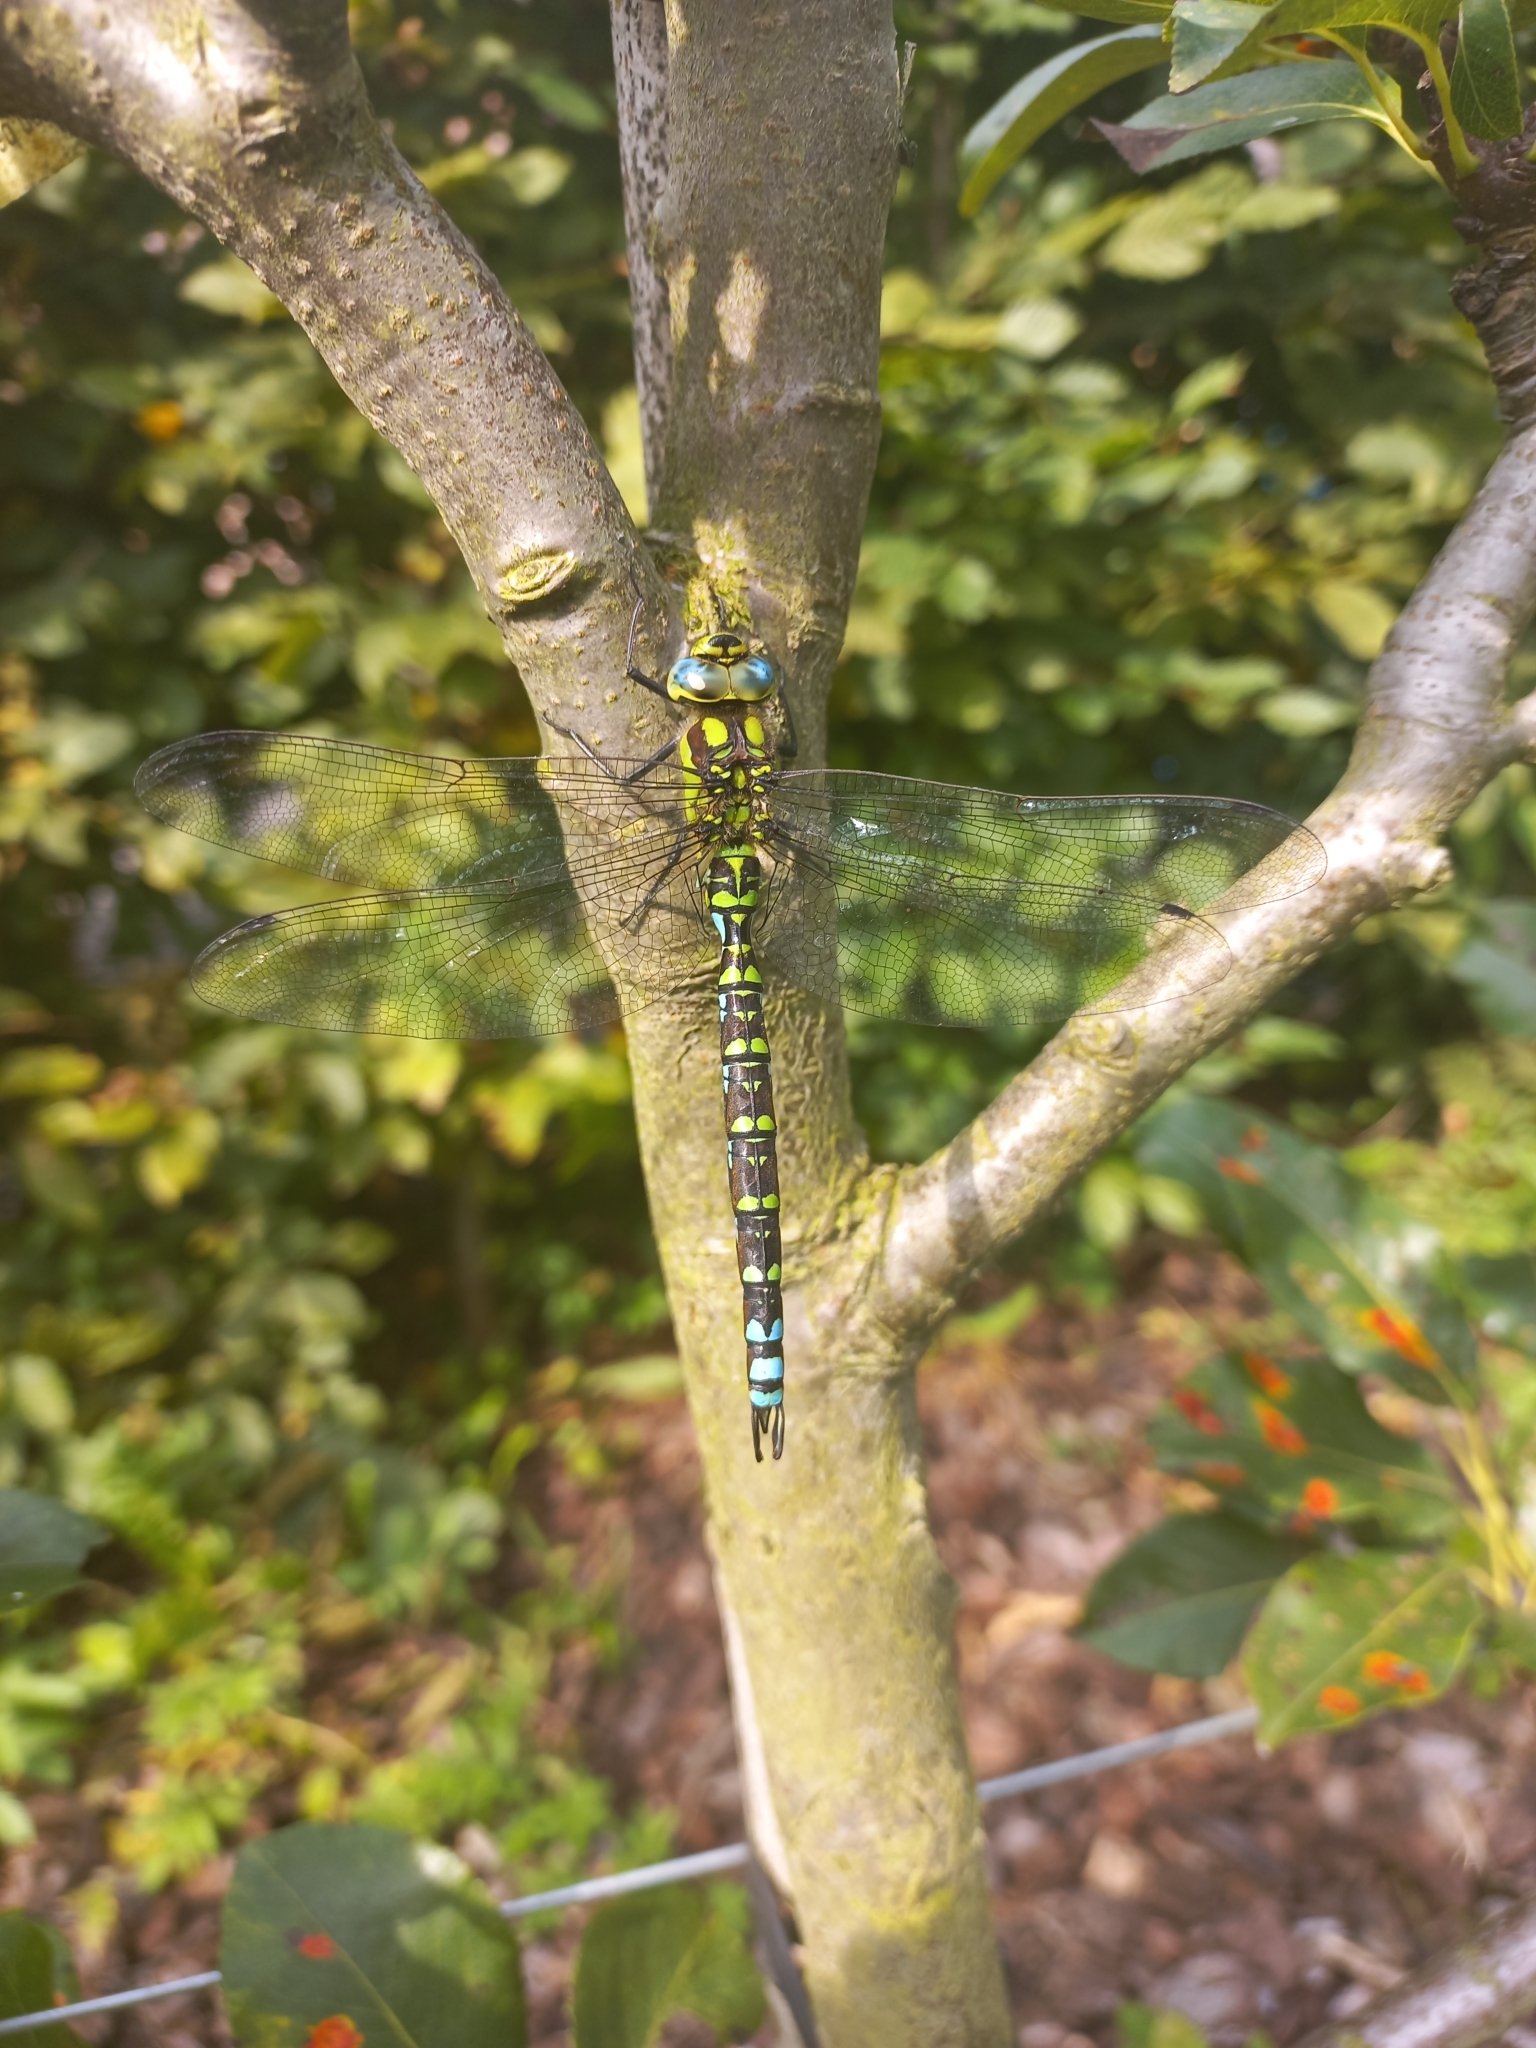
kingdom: Animalia
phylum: Arthropoda
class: Insecta
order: Odonata
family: Aeshnidae
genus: Aeshna
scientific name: Aeshna cyanea
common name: Southern hawker
